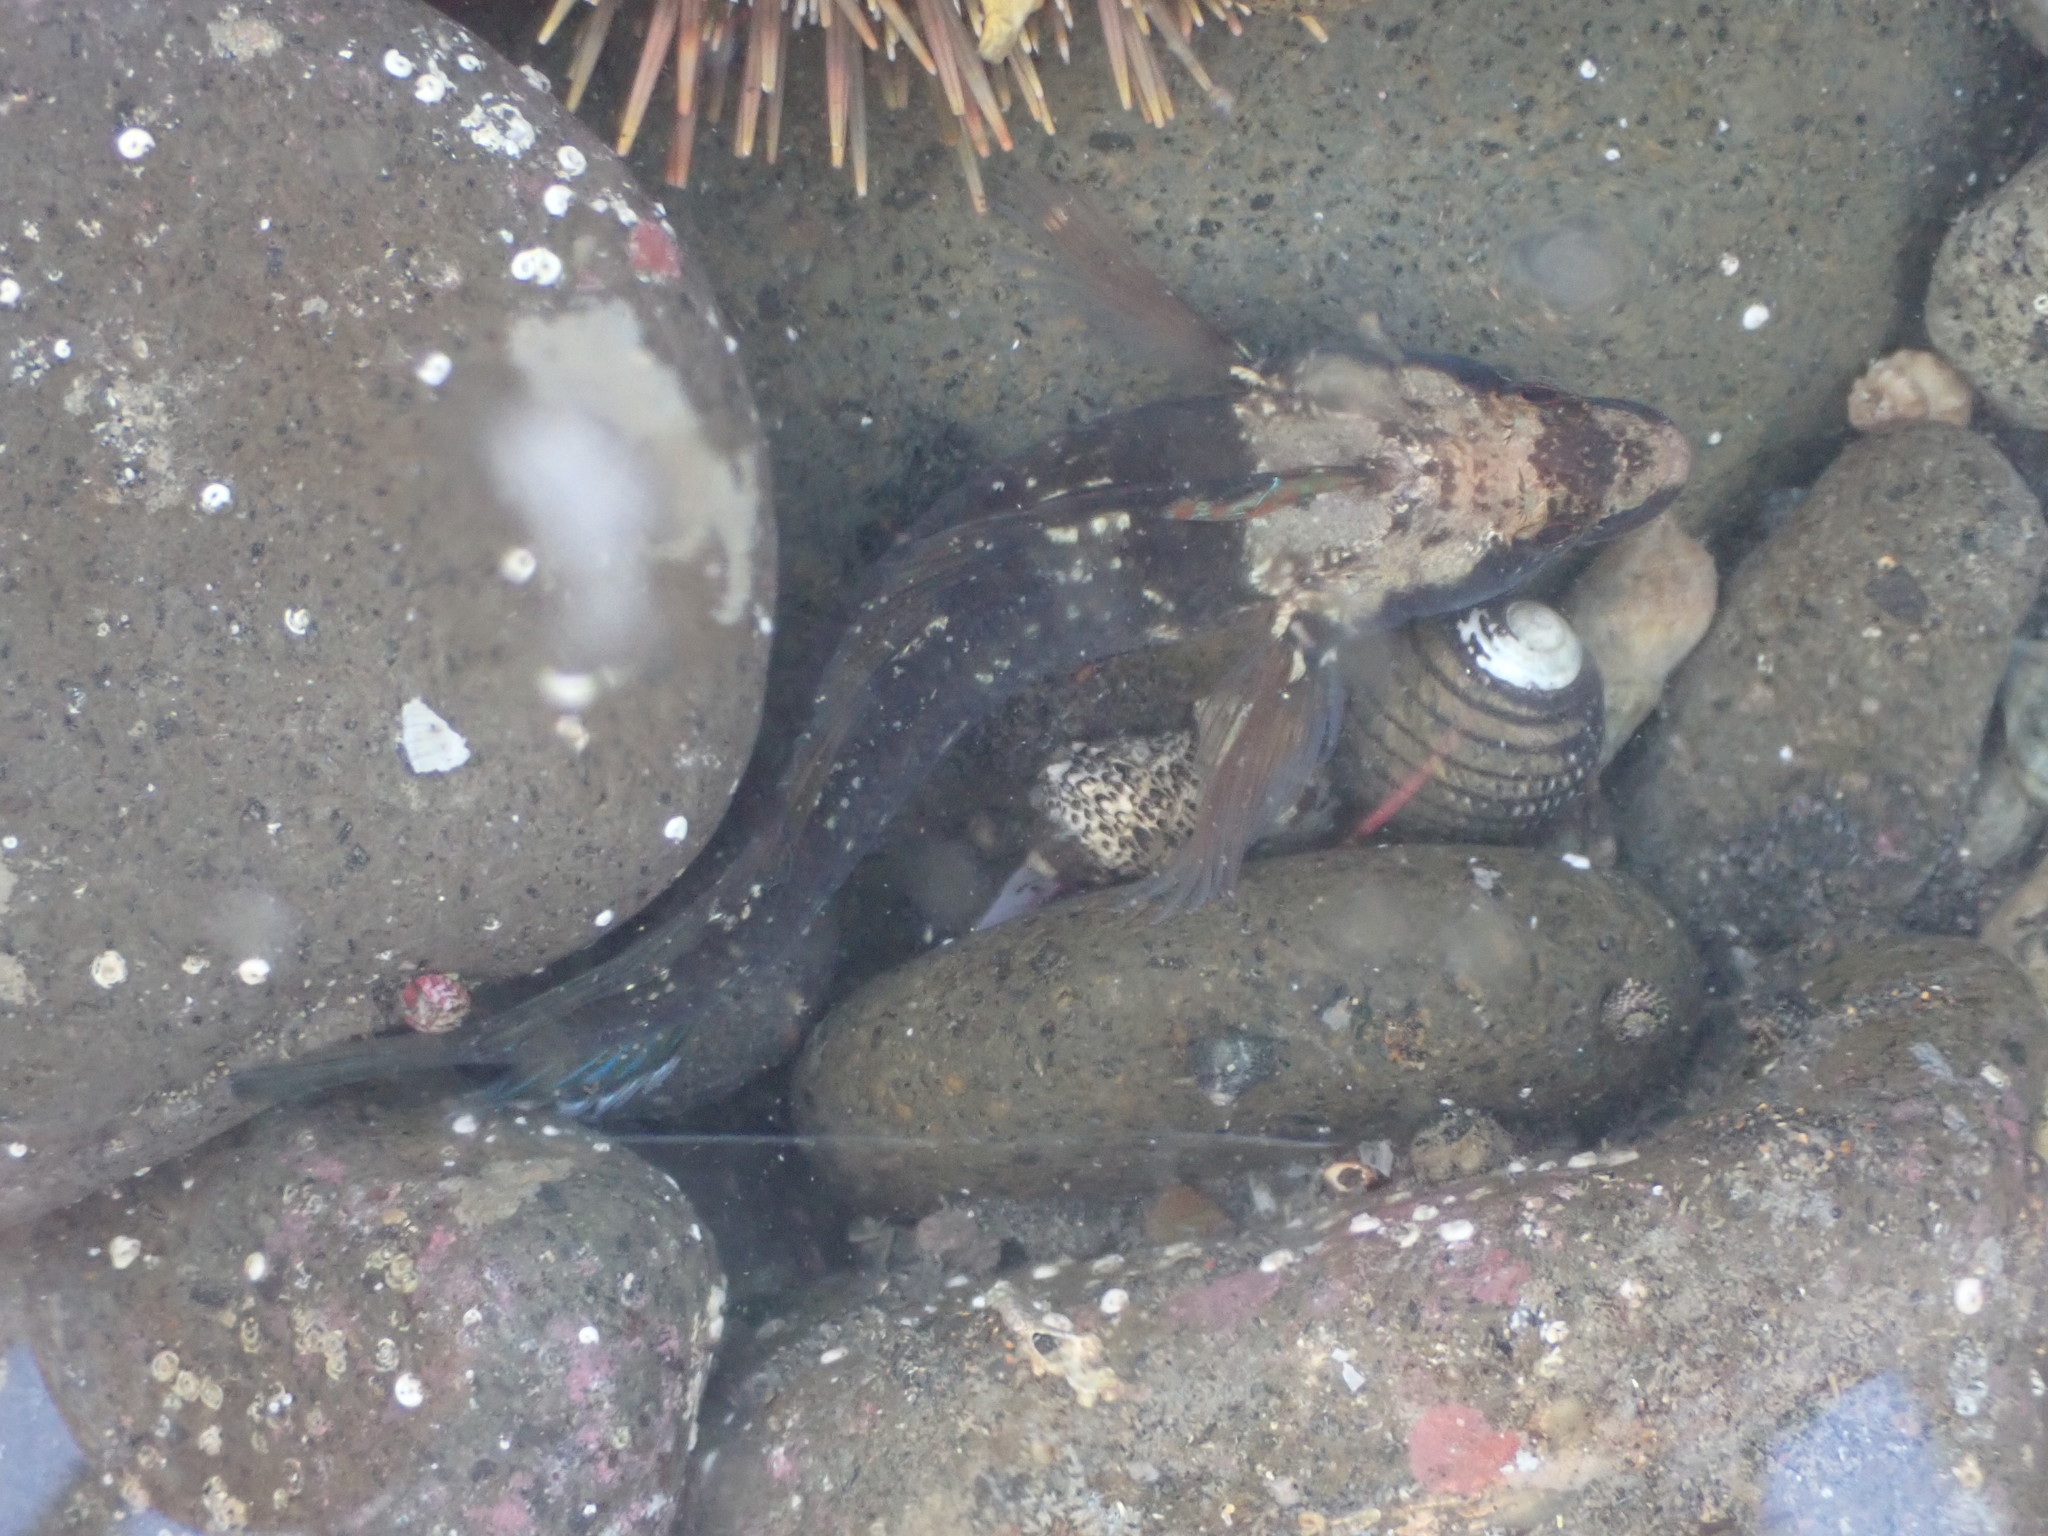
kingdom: Animalia
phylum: Chordata
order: Perciformes
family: Tripterygiidae
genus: Ruanoho
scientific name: Ruanoho decemdigitatus
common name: Longfinned triplefin
